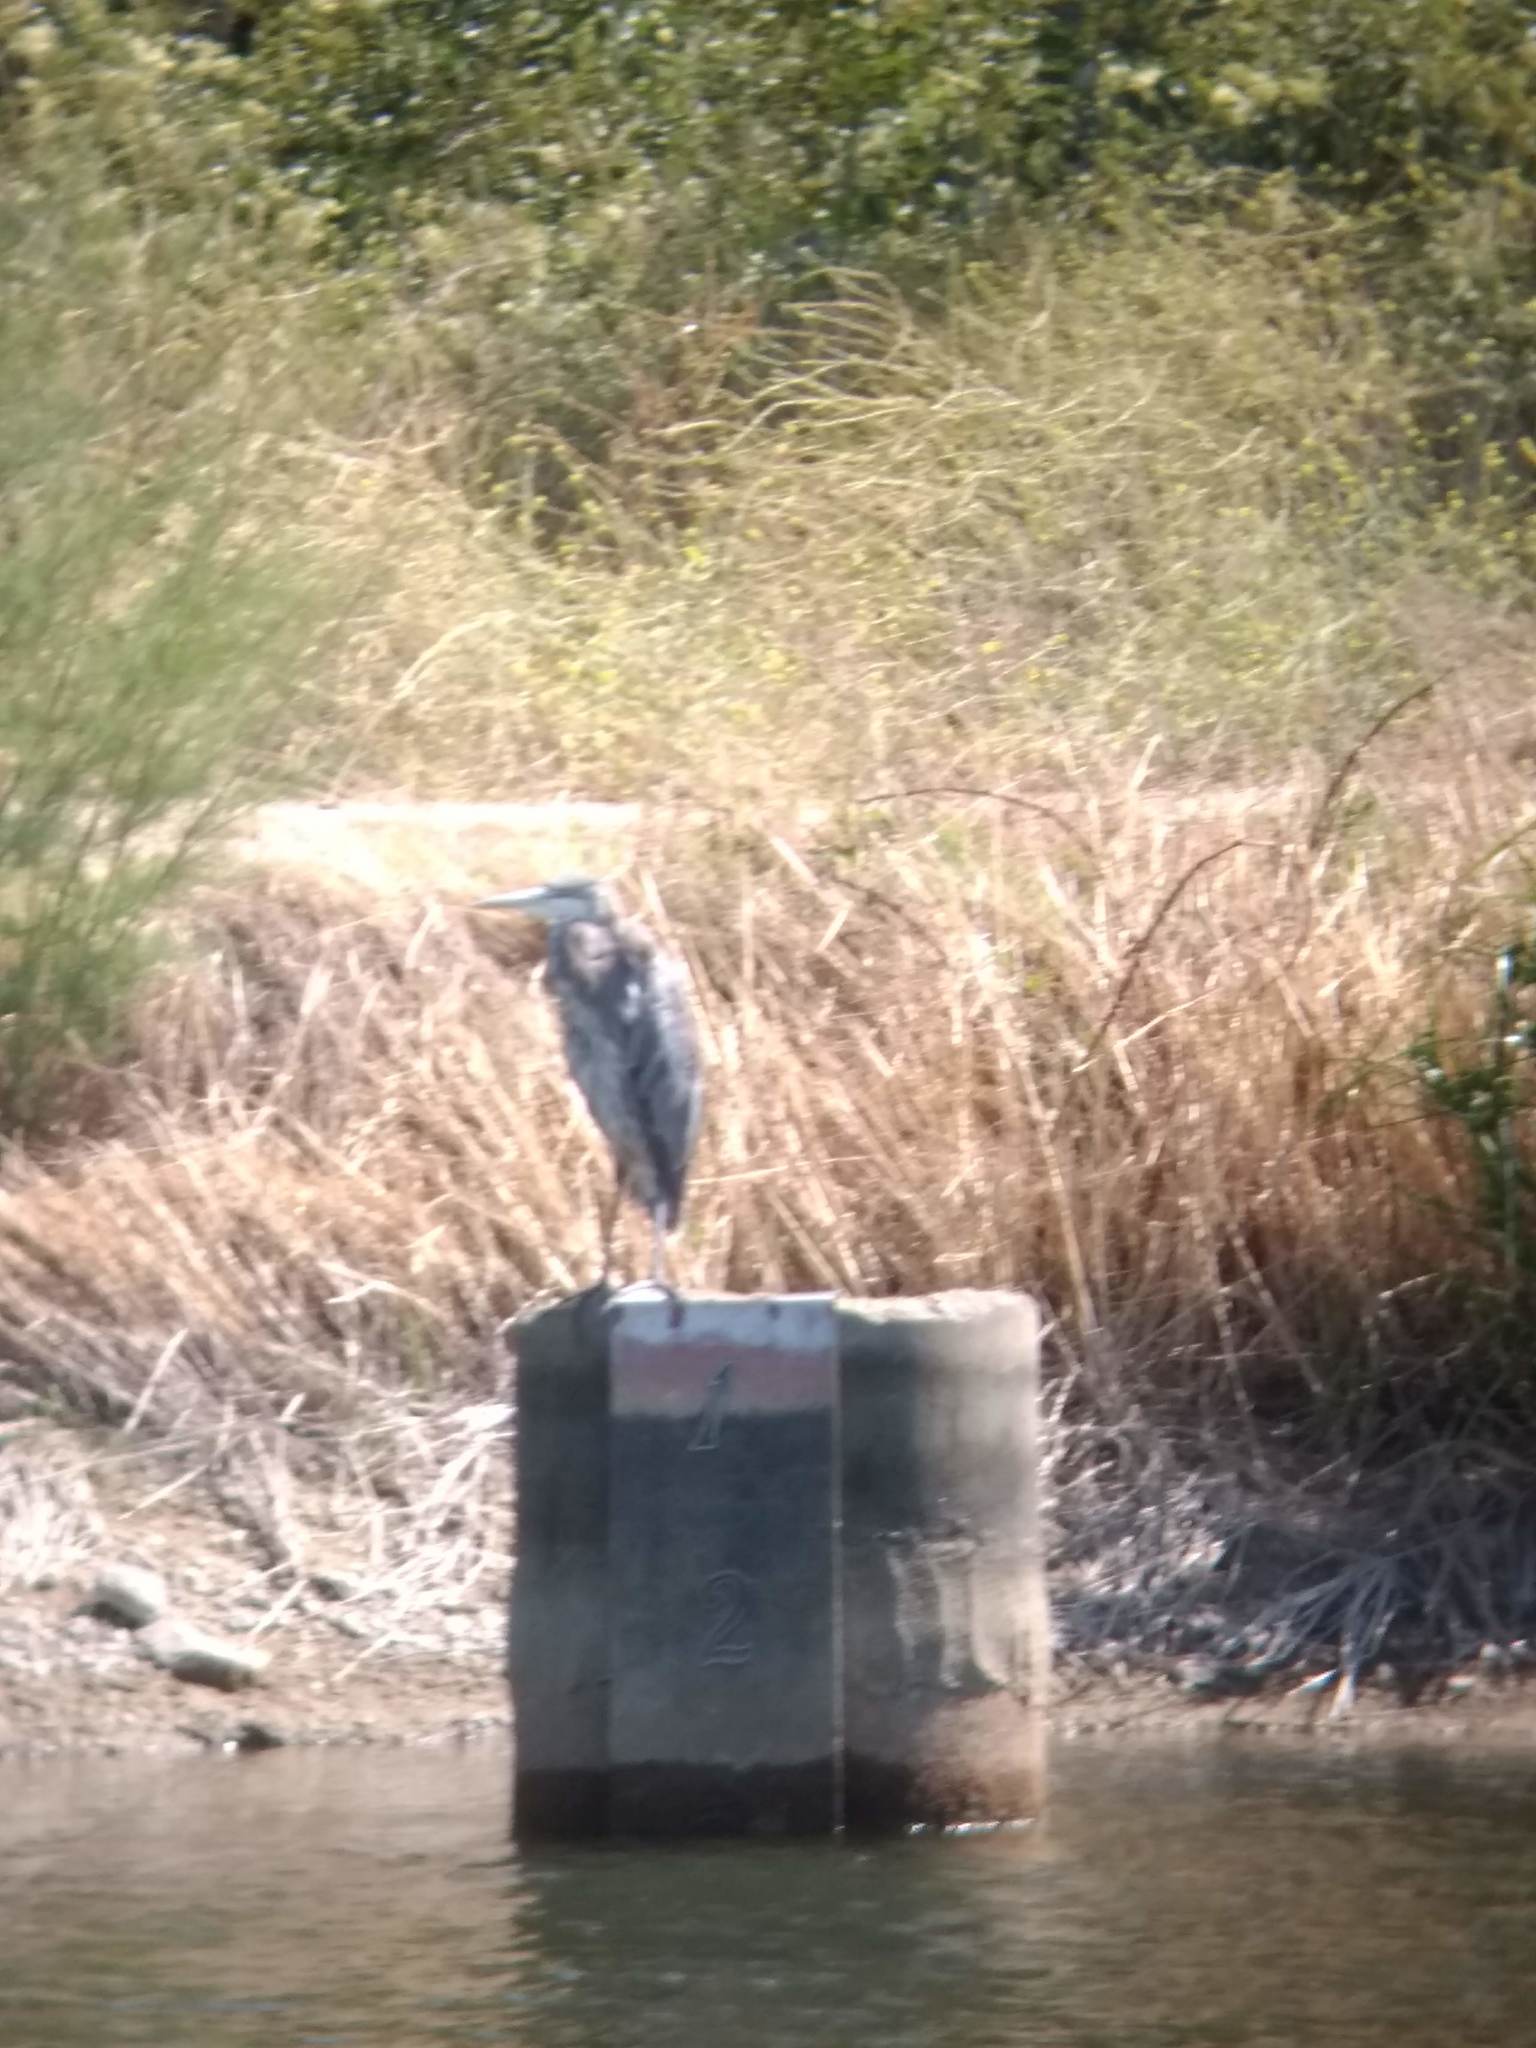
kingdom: Animalia
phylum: Chordata
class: Aves
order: Pelecaniformes
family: Ardeidae
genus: Ardea
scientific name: Ardea herodias
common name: Great blue heron
